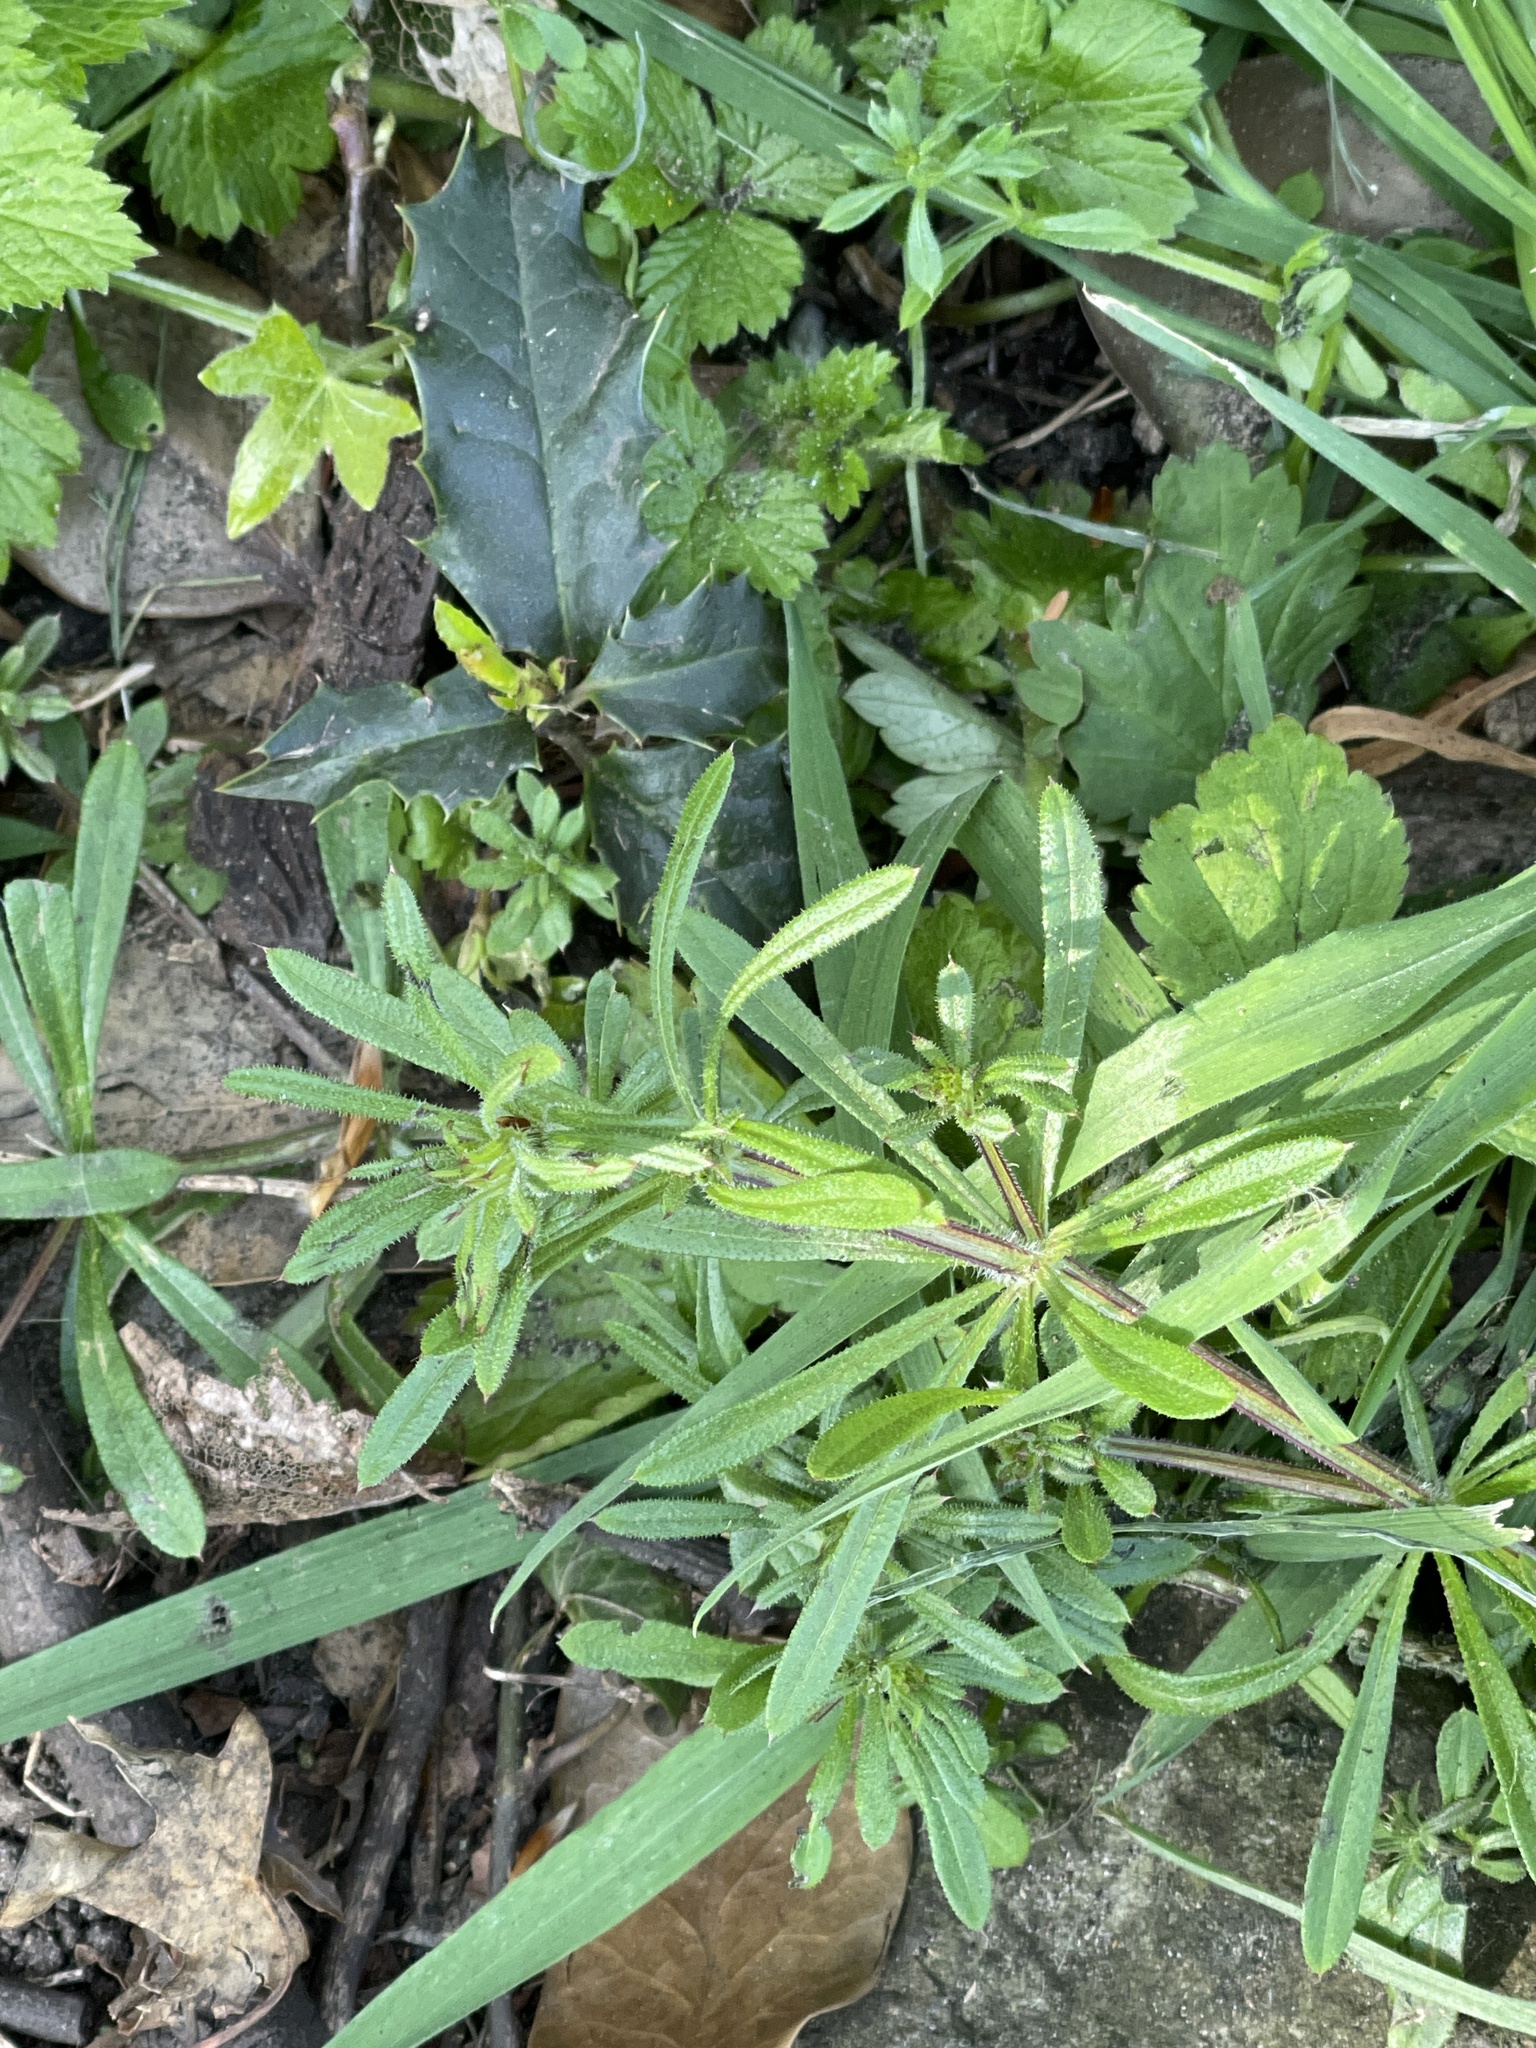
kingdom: Plantae
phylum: Tracheophyta
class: Magnoliopsida
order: Gentianales
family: Rubiaceae
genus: Galium
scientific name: Galium aparine
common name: Cleavers
